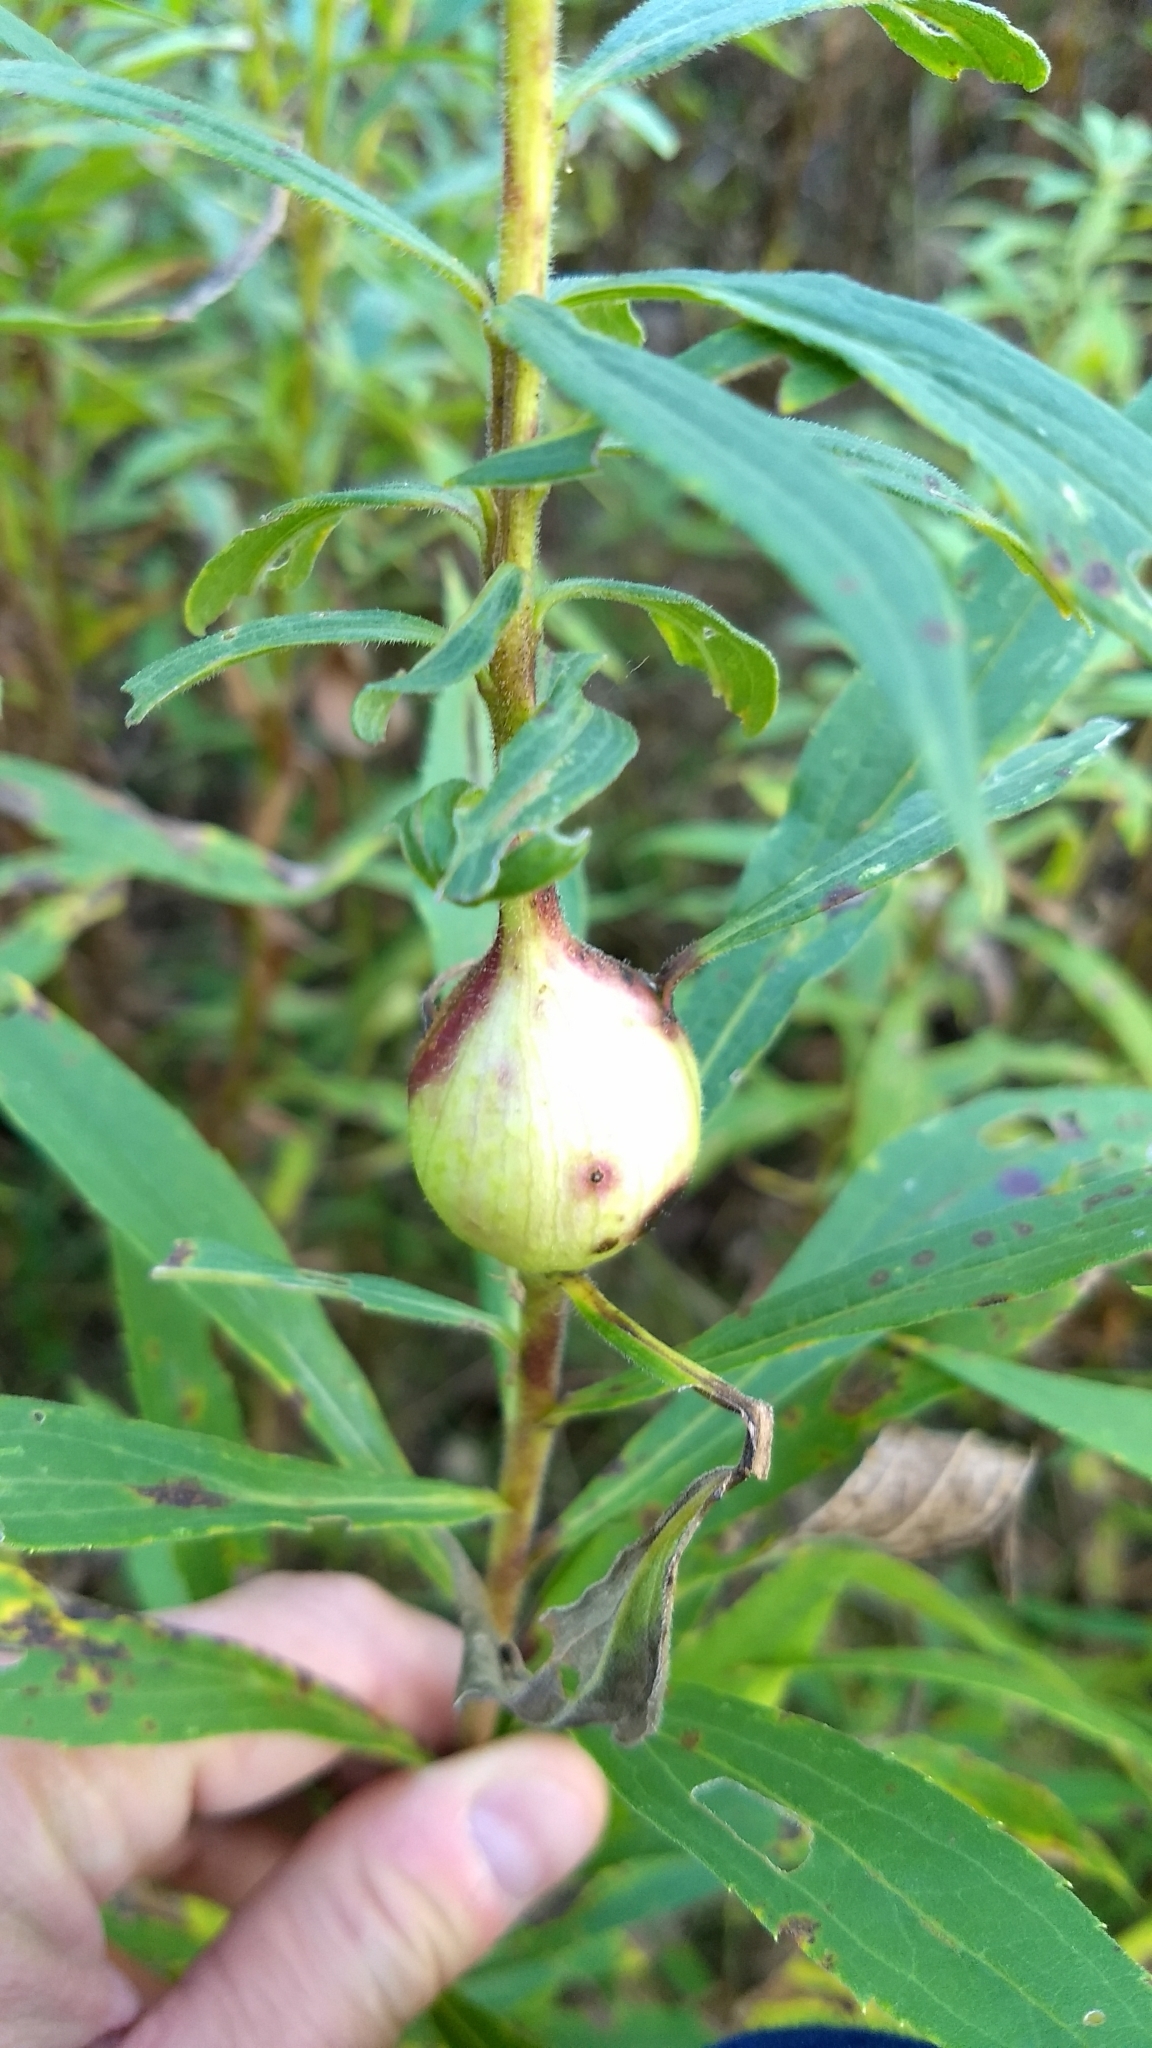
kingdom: Animalia
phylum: Arthropoda
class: Insecta
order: Diptera
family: Tephritidae
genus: Eurosta
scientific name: Eurosta solidaginis
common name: Goldenrod gall fly
